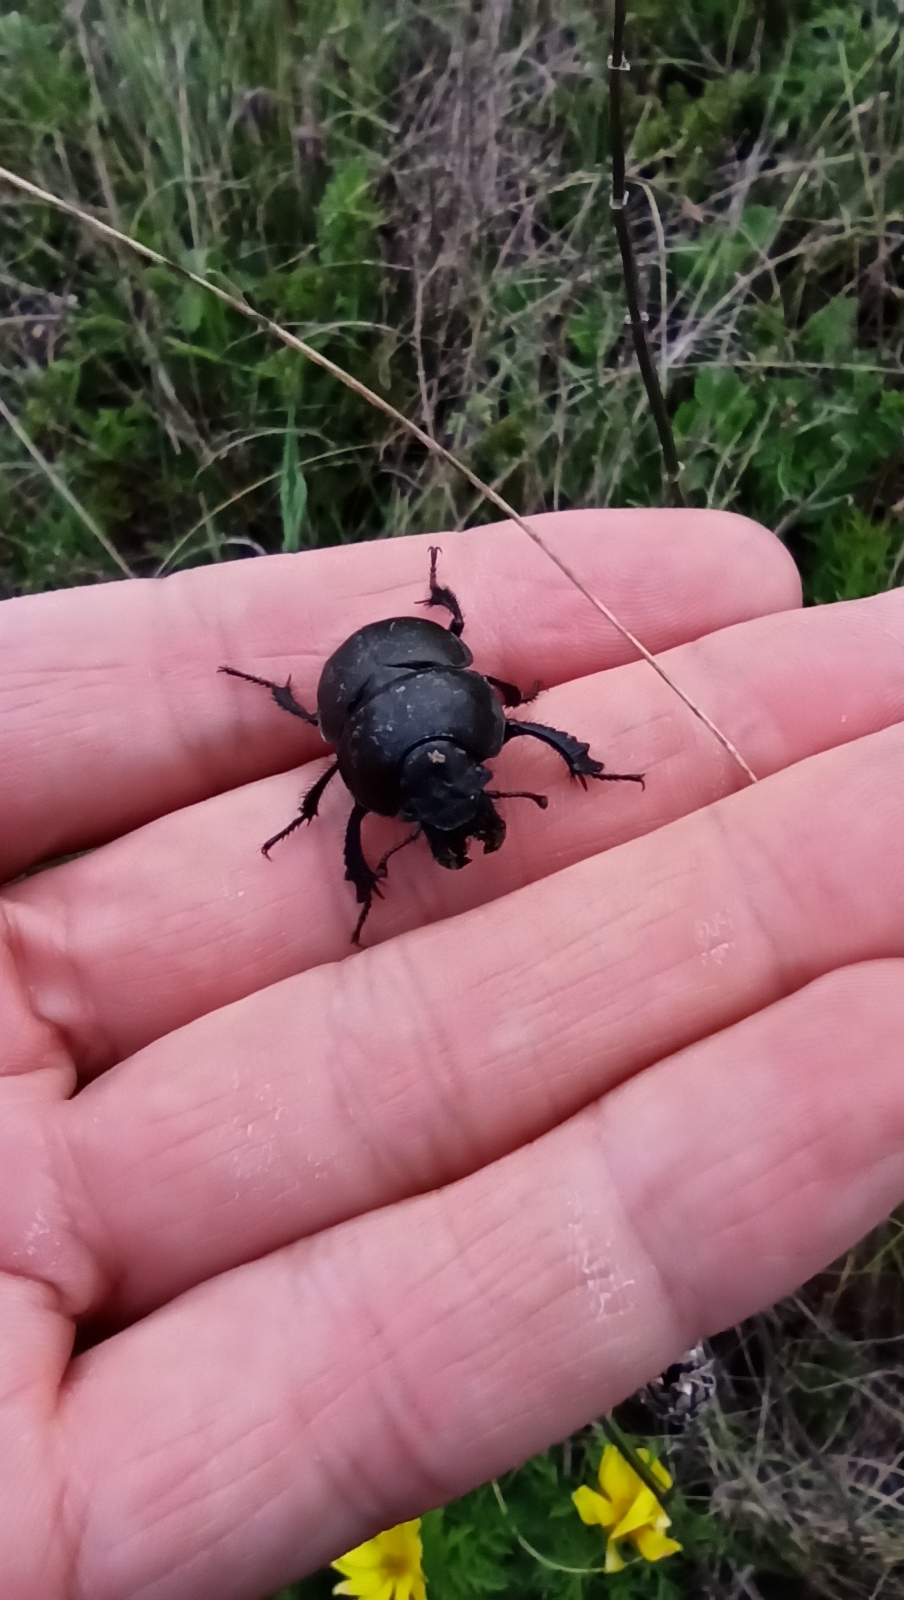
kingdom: Animalia
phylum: Arthropoda
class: Insecta
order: Coleoptera
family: Geotrupidae
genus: Lethrus
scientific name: Lethrus apterus
